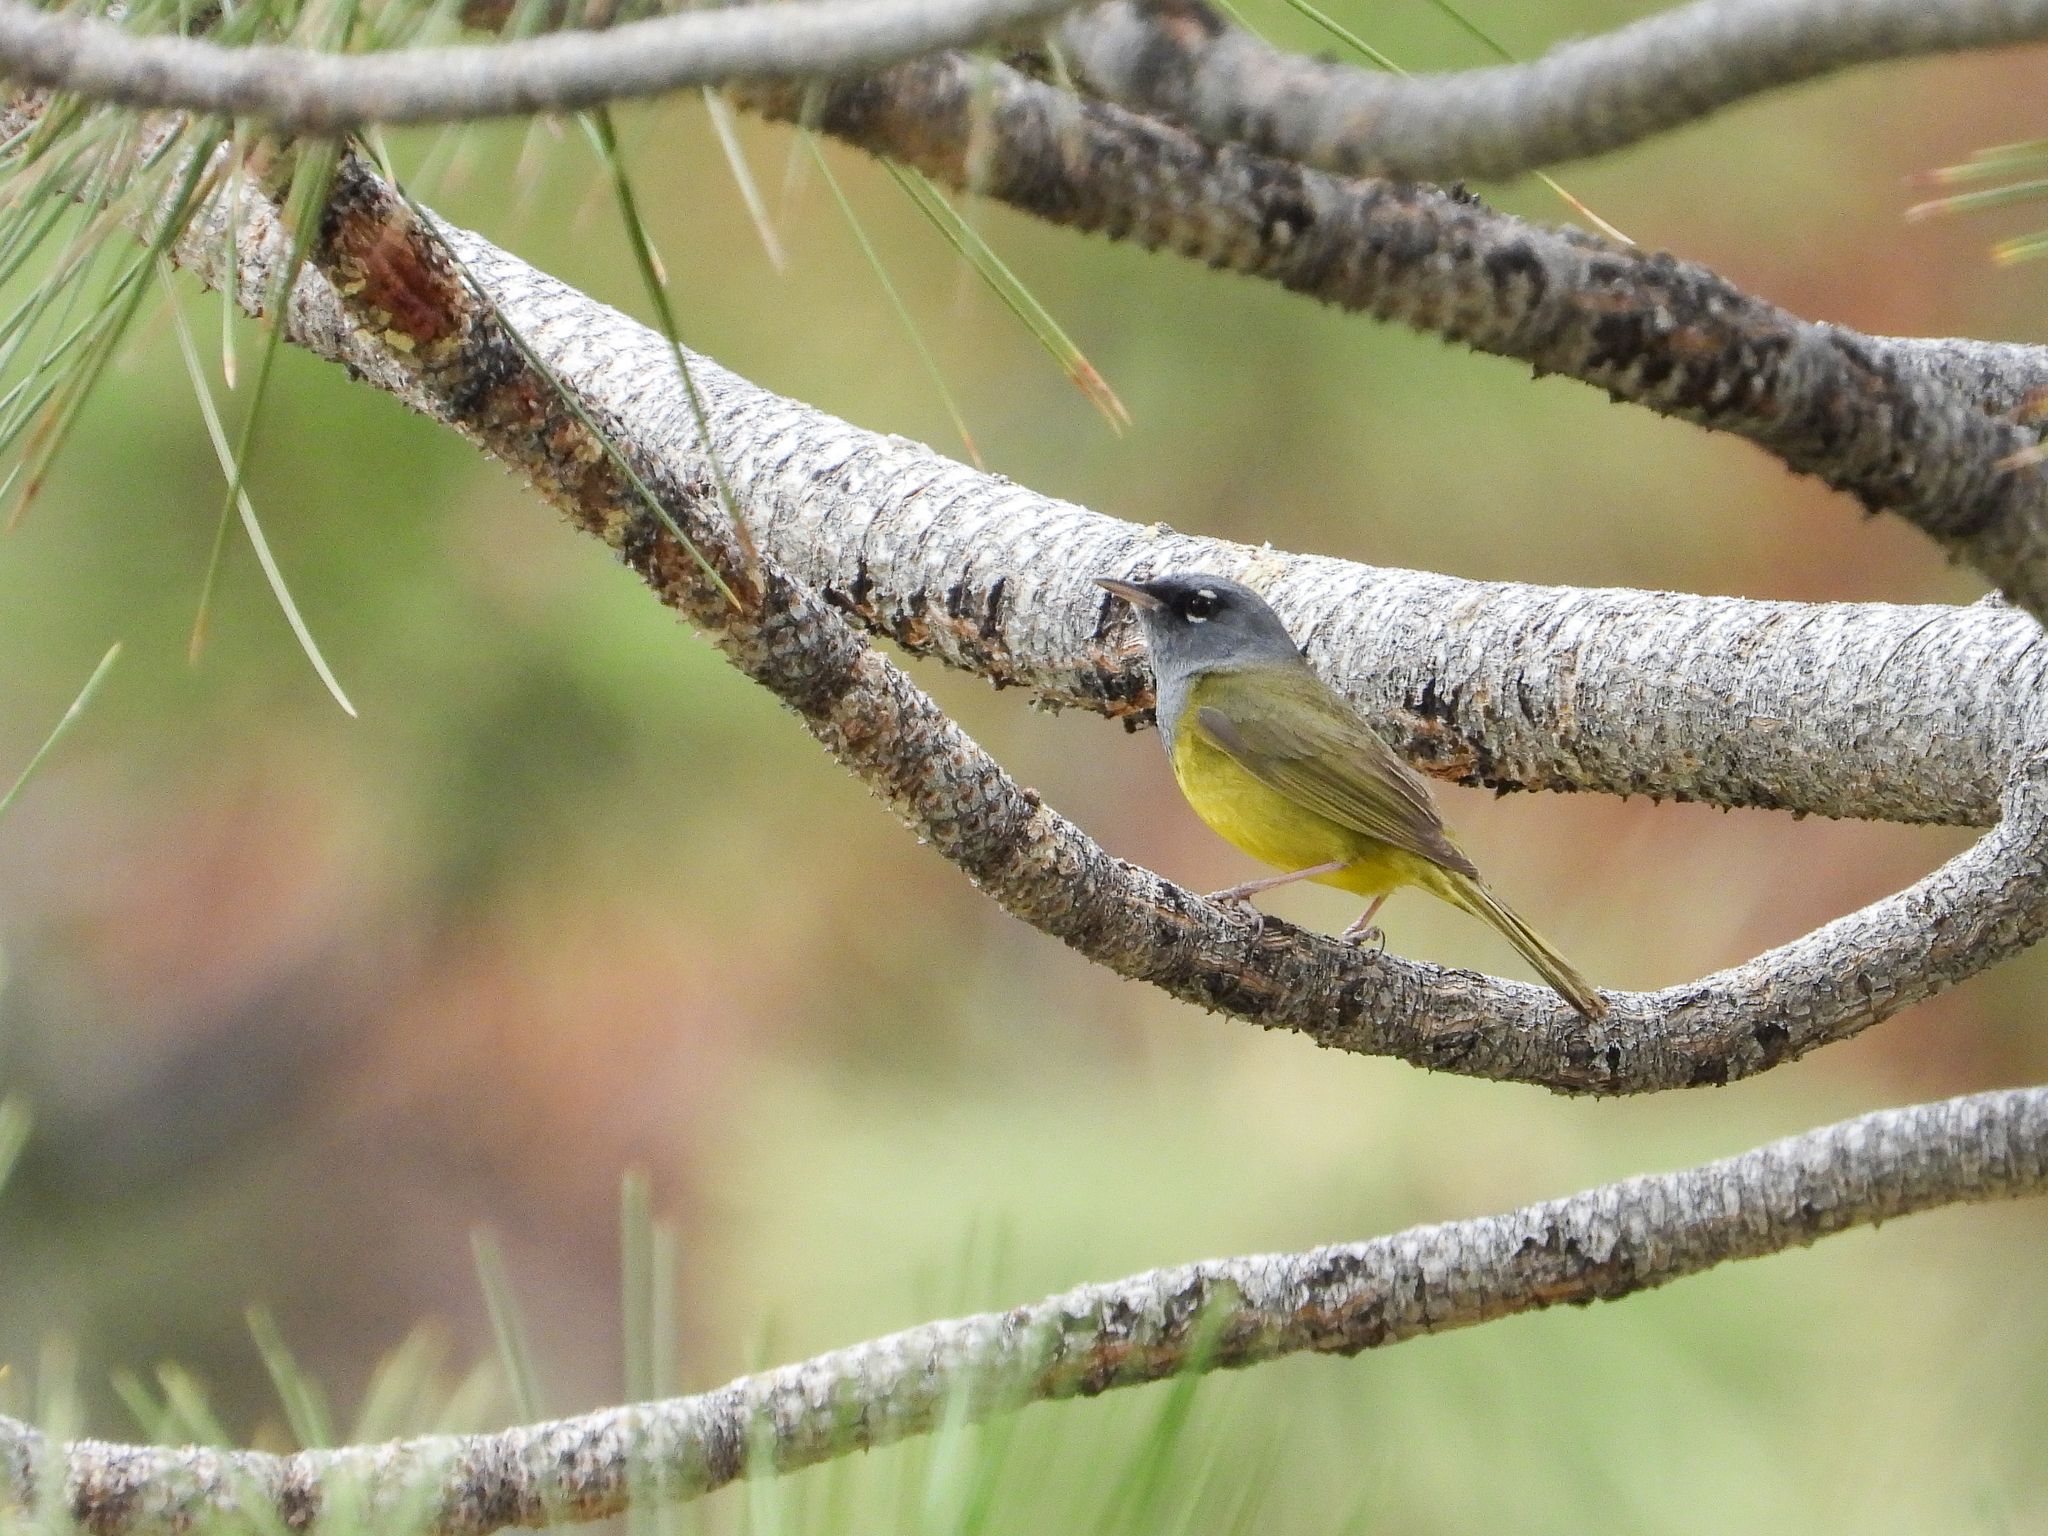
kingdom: Animalia
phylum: Chordata
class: Aves
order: Passeriformes
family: Parulidae
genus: Geothlypis
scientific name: Geothlypis tolmiei
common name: Macgillivray's warbler
